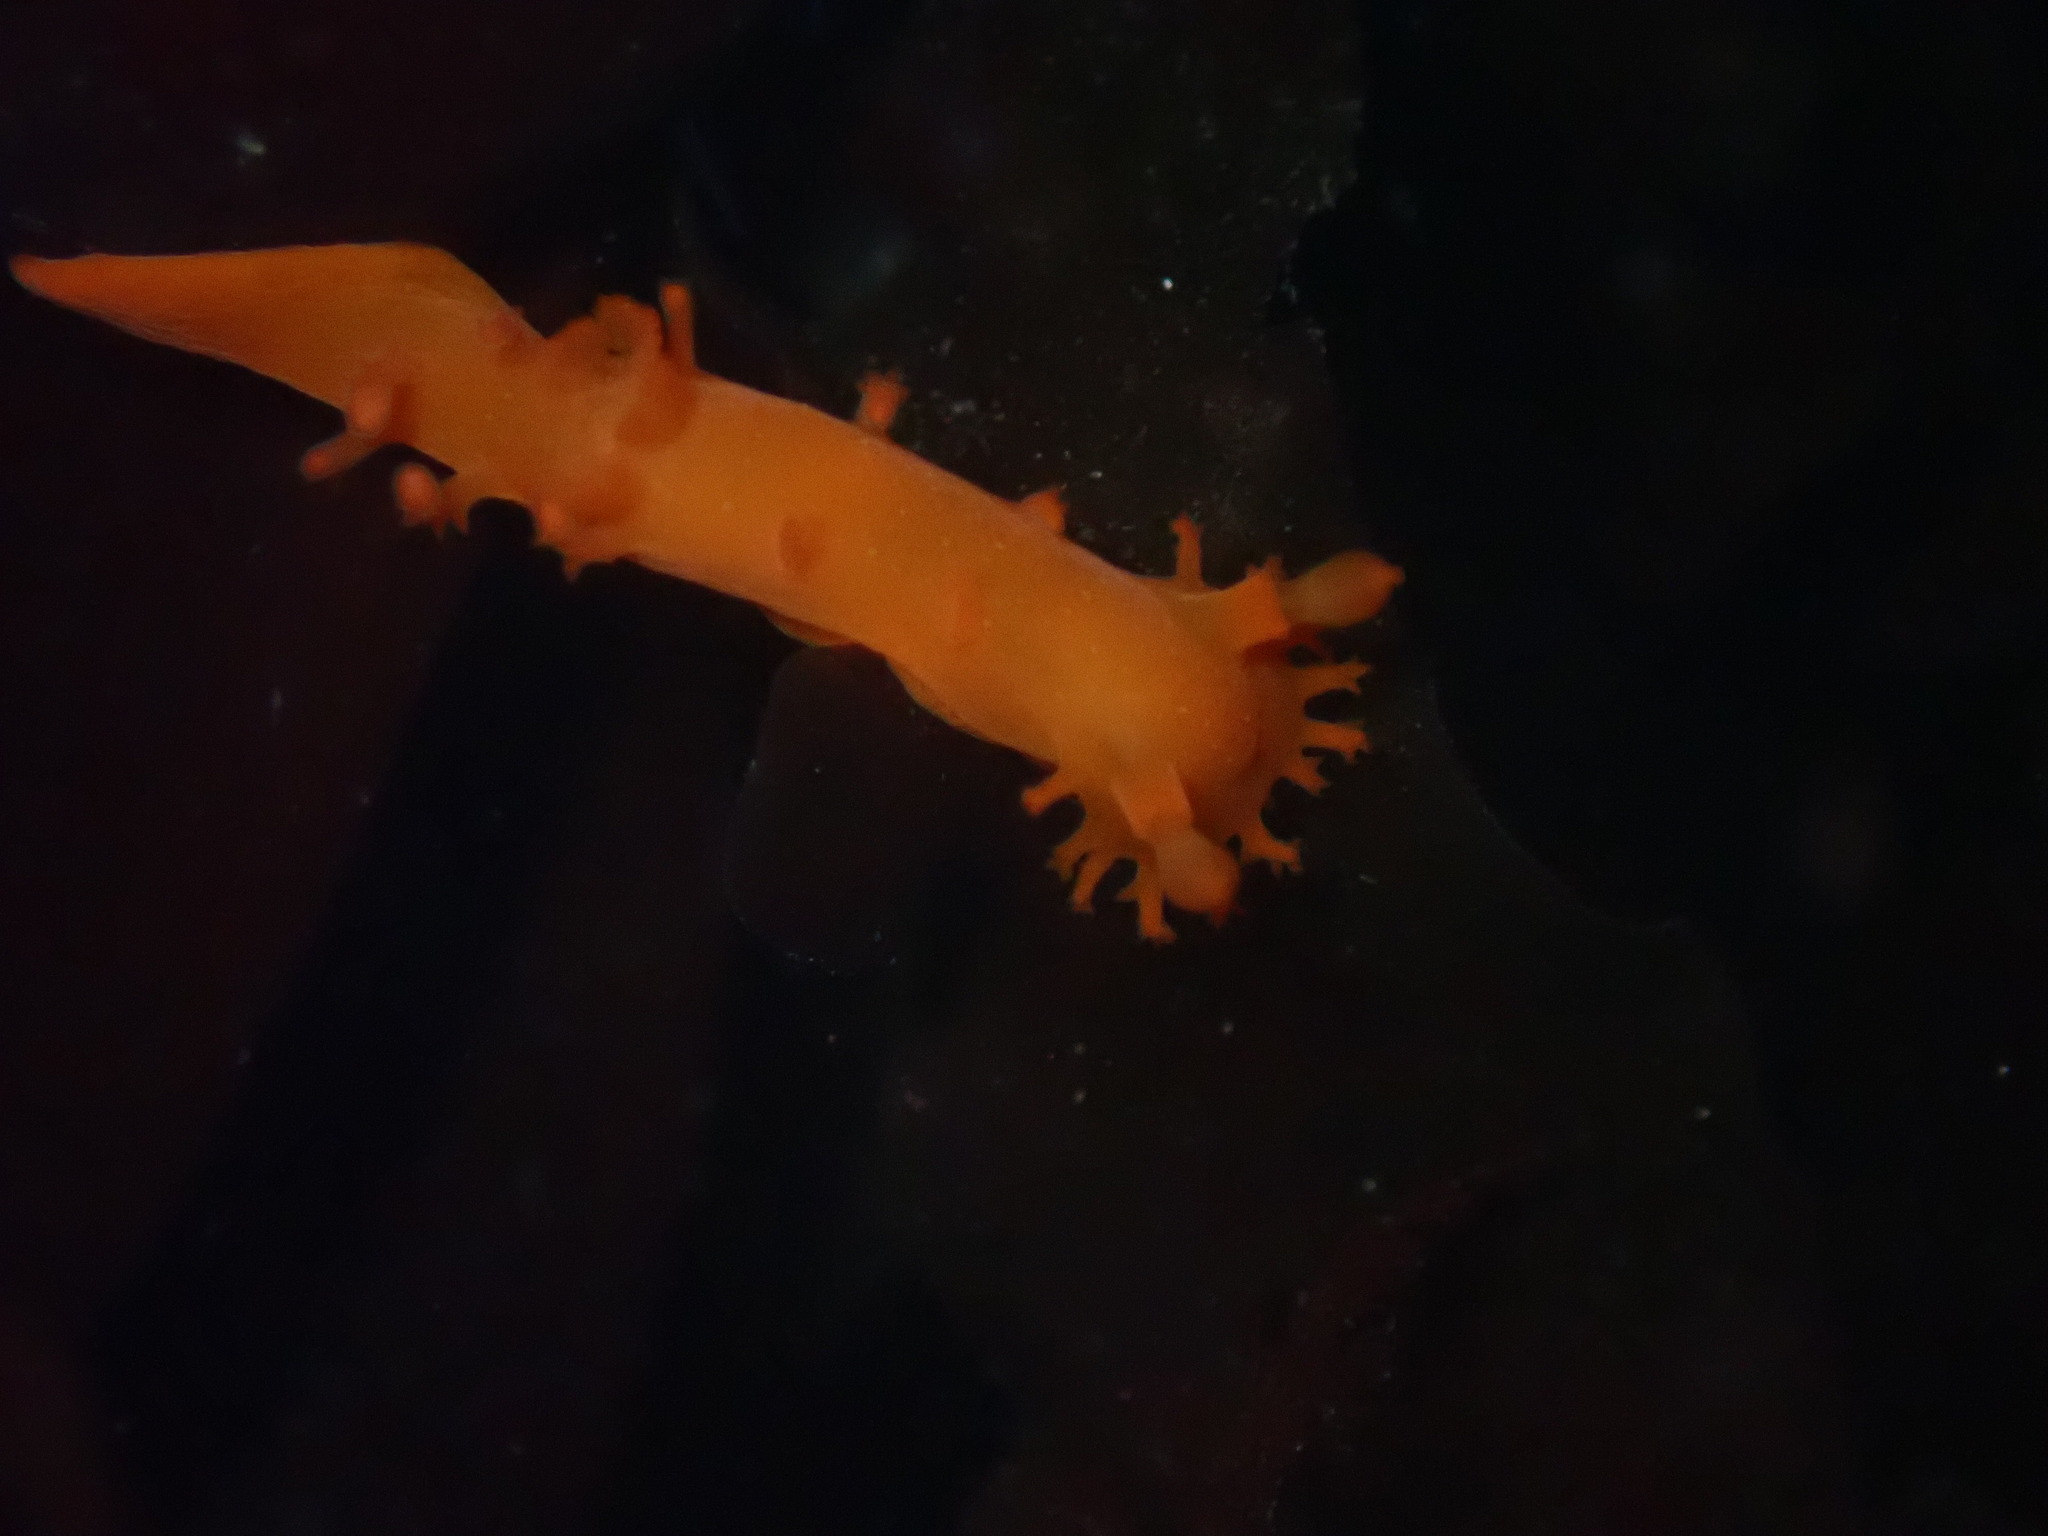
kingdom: Animalia
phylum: Mollusca
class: Gastropoda
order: Nudibranchia
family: Polyceridae
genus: Triopha
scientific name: Triopha maculata
